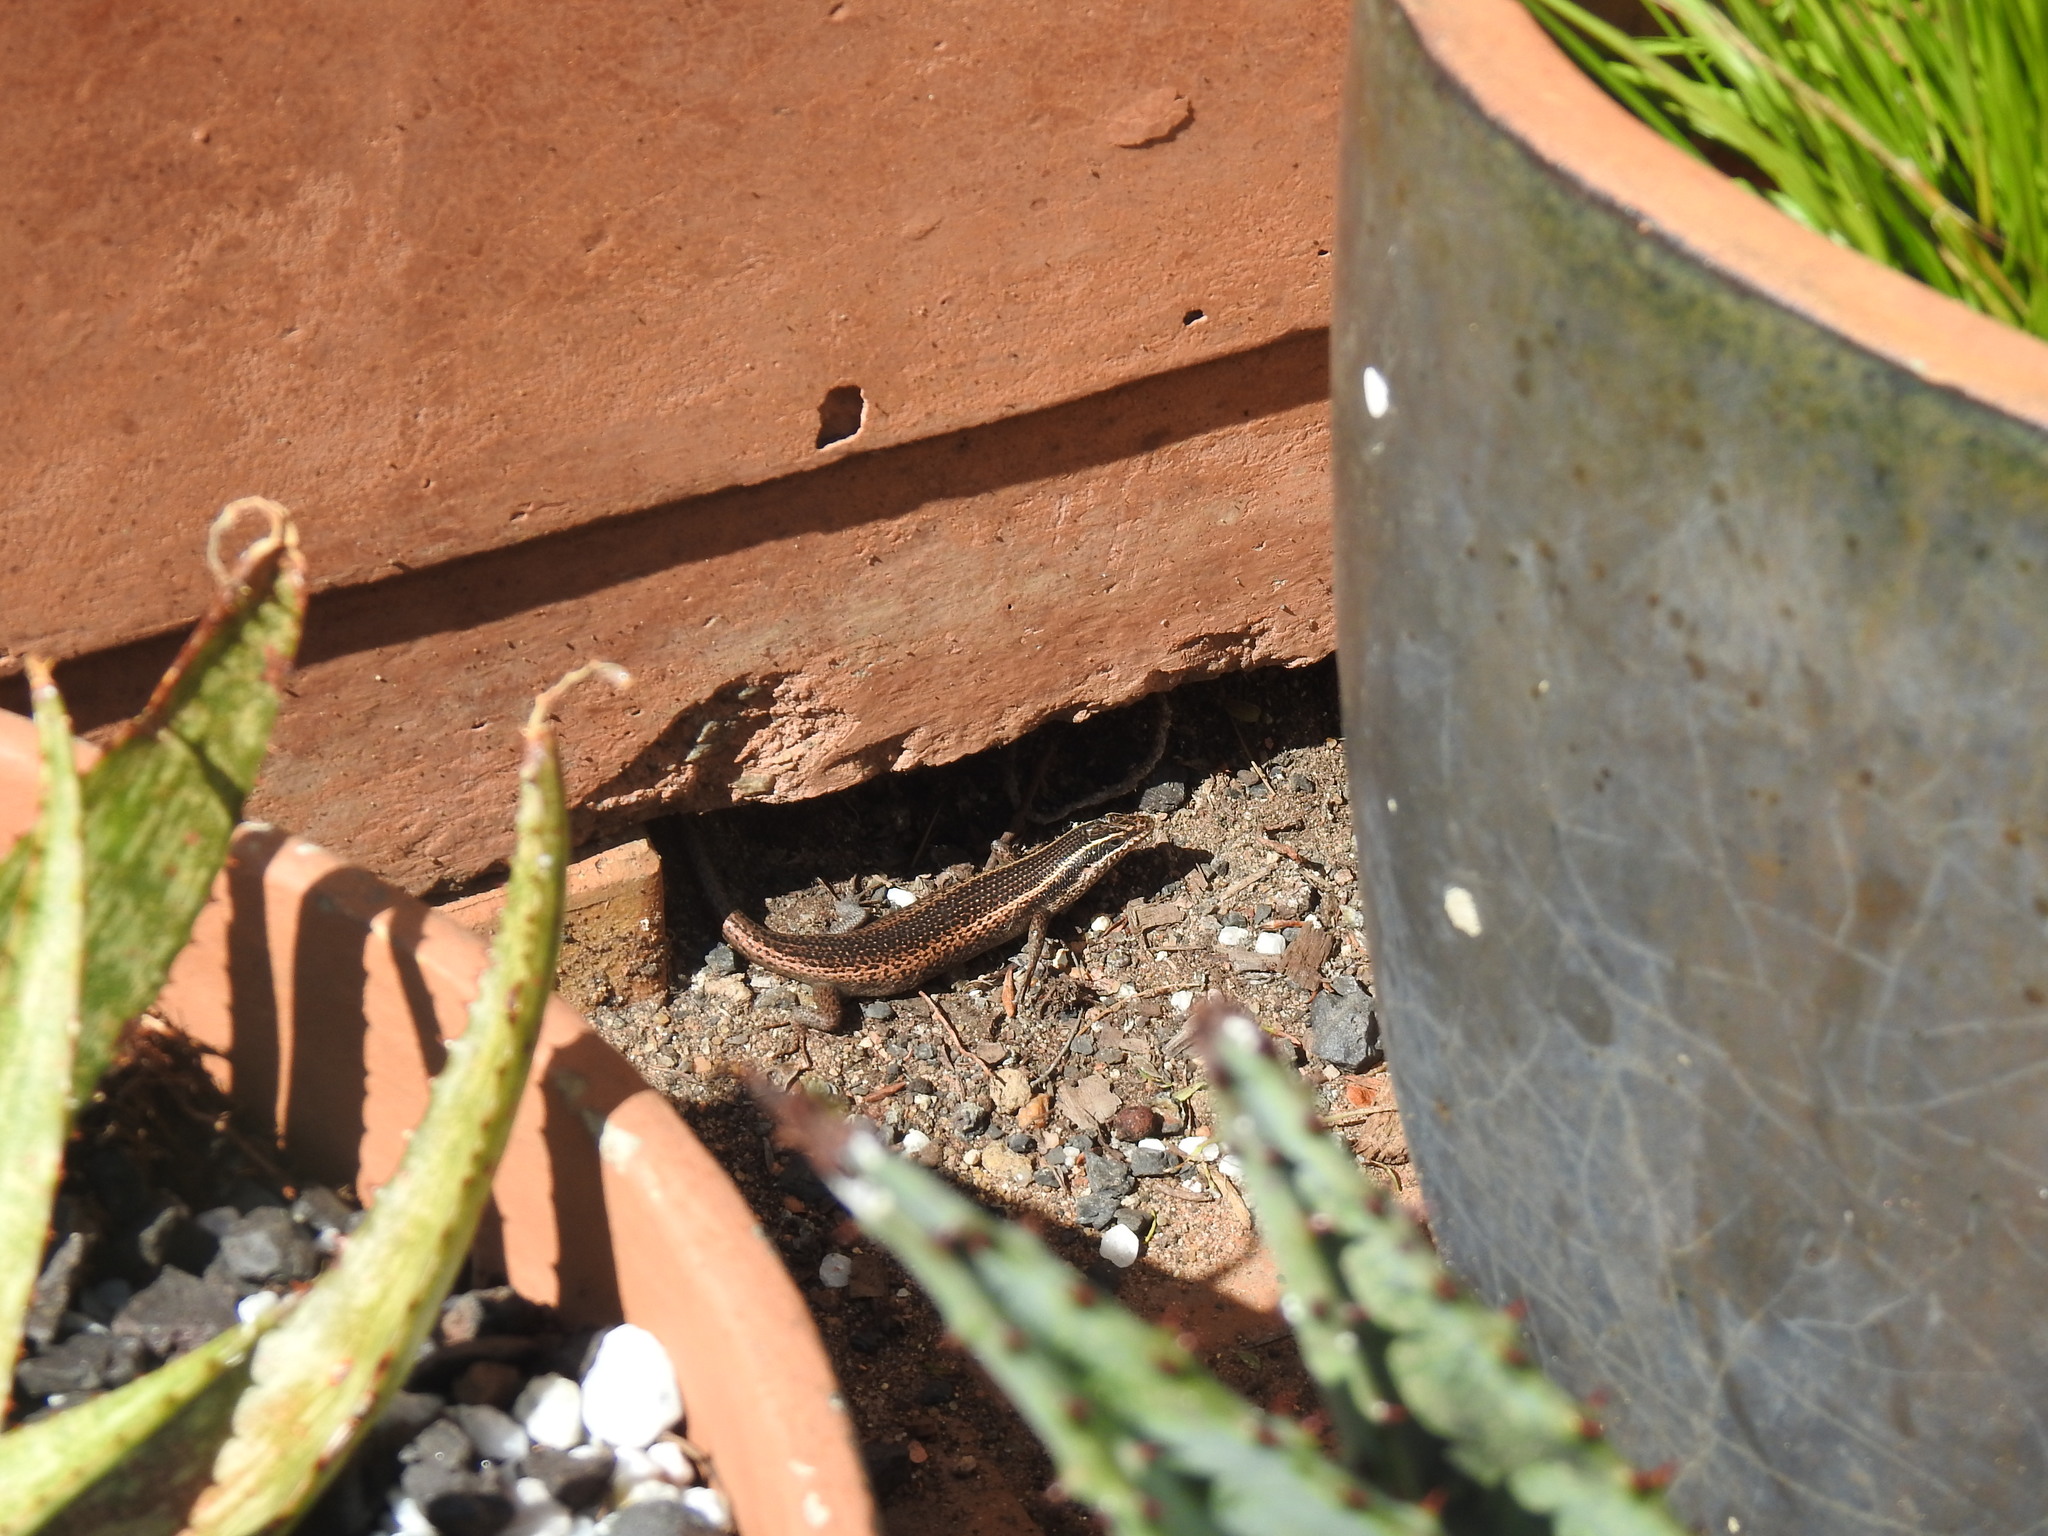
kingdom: Animalia
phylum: Chordata
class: Squamata
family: Scincidae
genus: Trachylepis
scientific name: Trachylepis punctatissima
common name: Montane speckled skink
